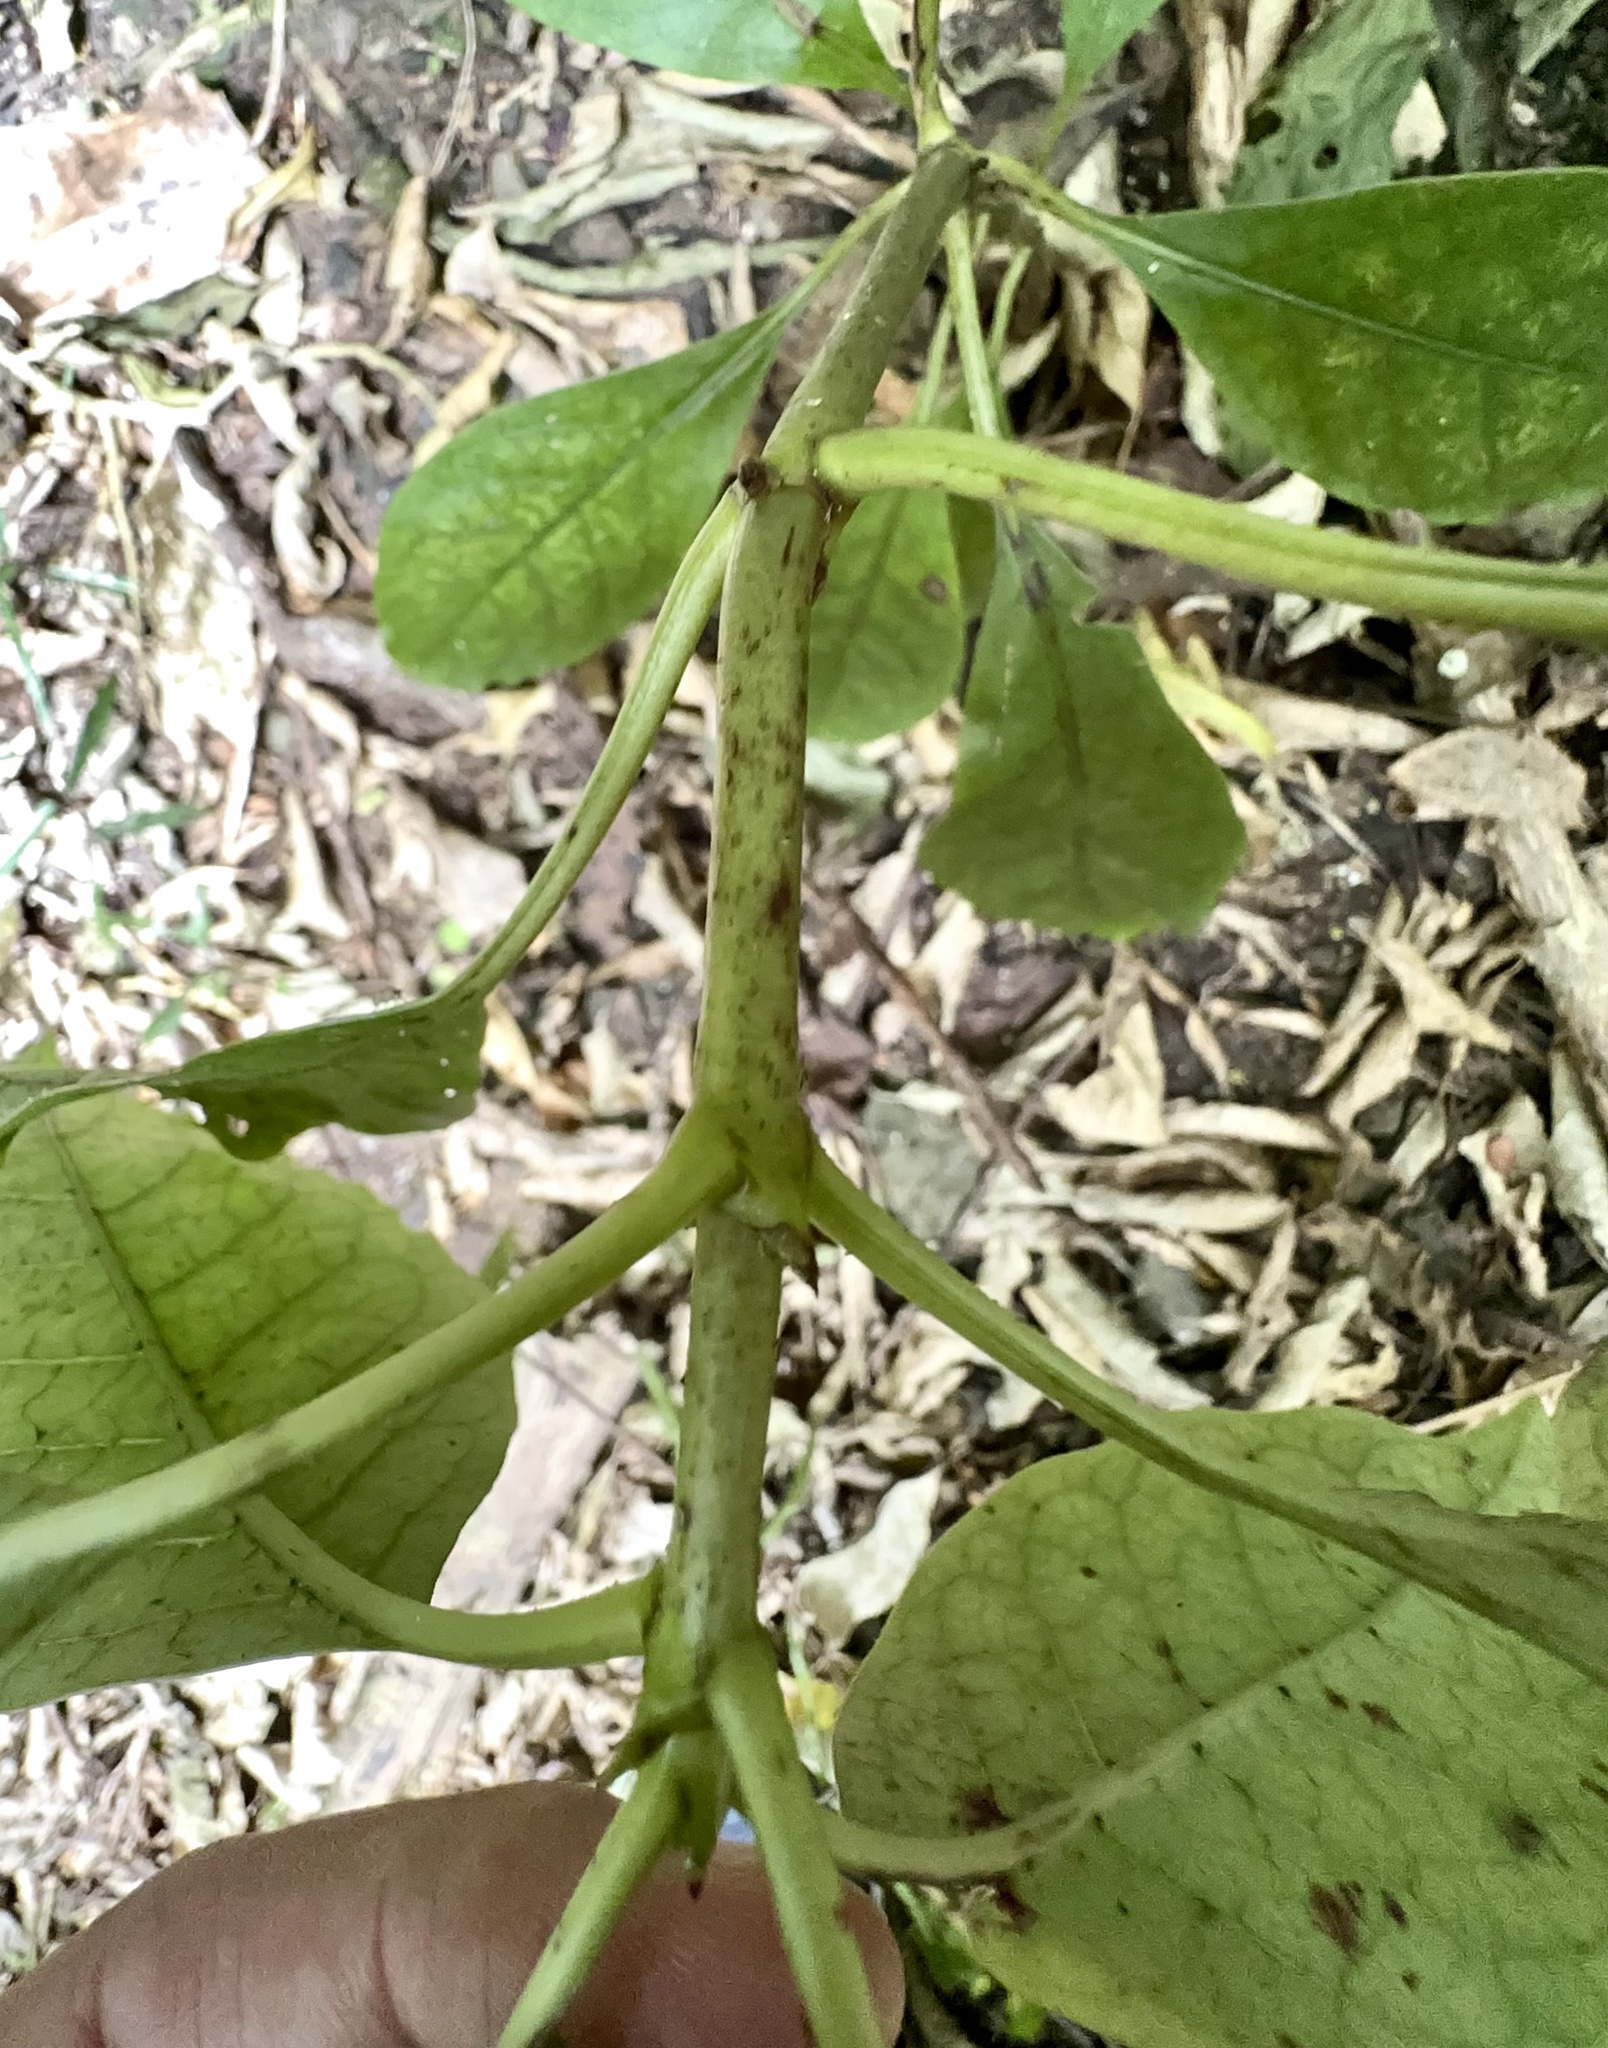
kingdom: Plantae
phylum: Tracheophyta
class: Magnoliopsida
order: Gentianales
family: Rubiaceae
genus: Coprosma
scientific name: Coprosma autumnalis
